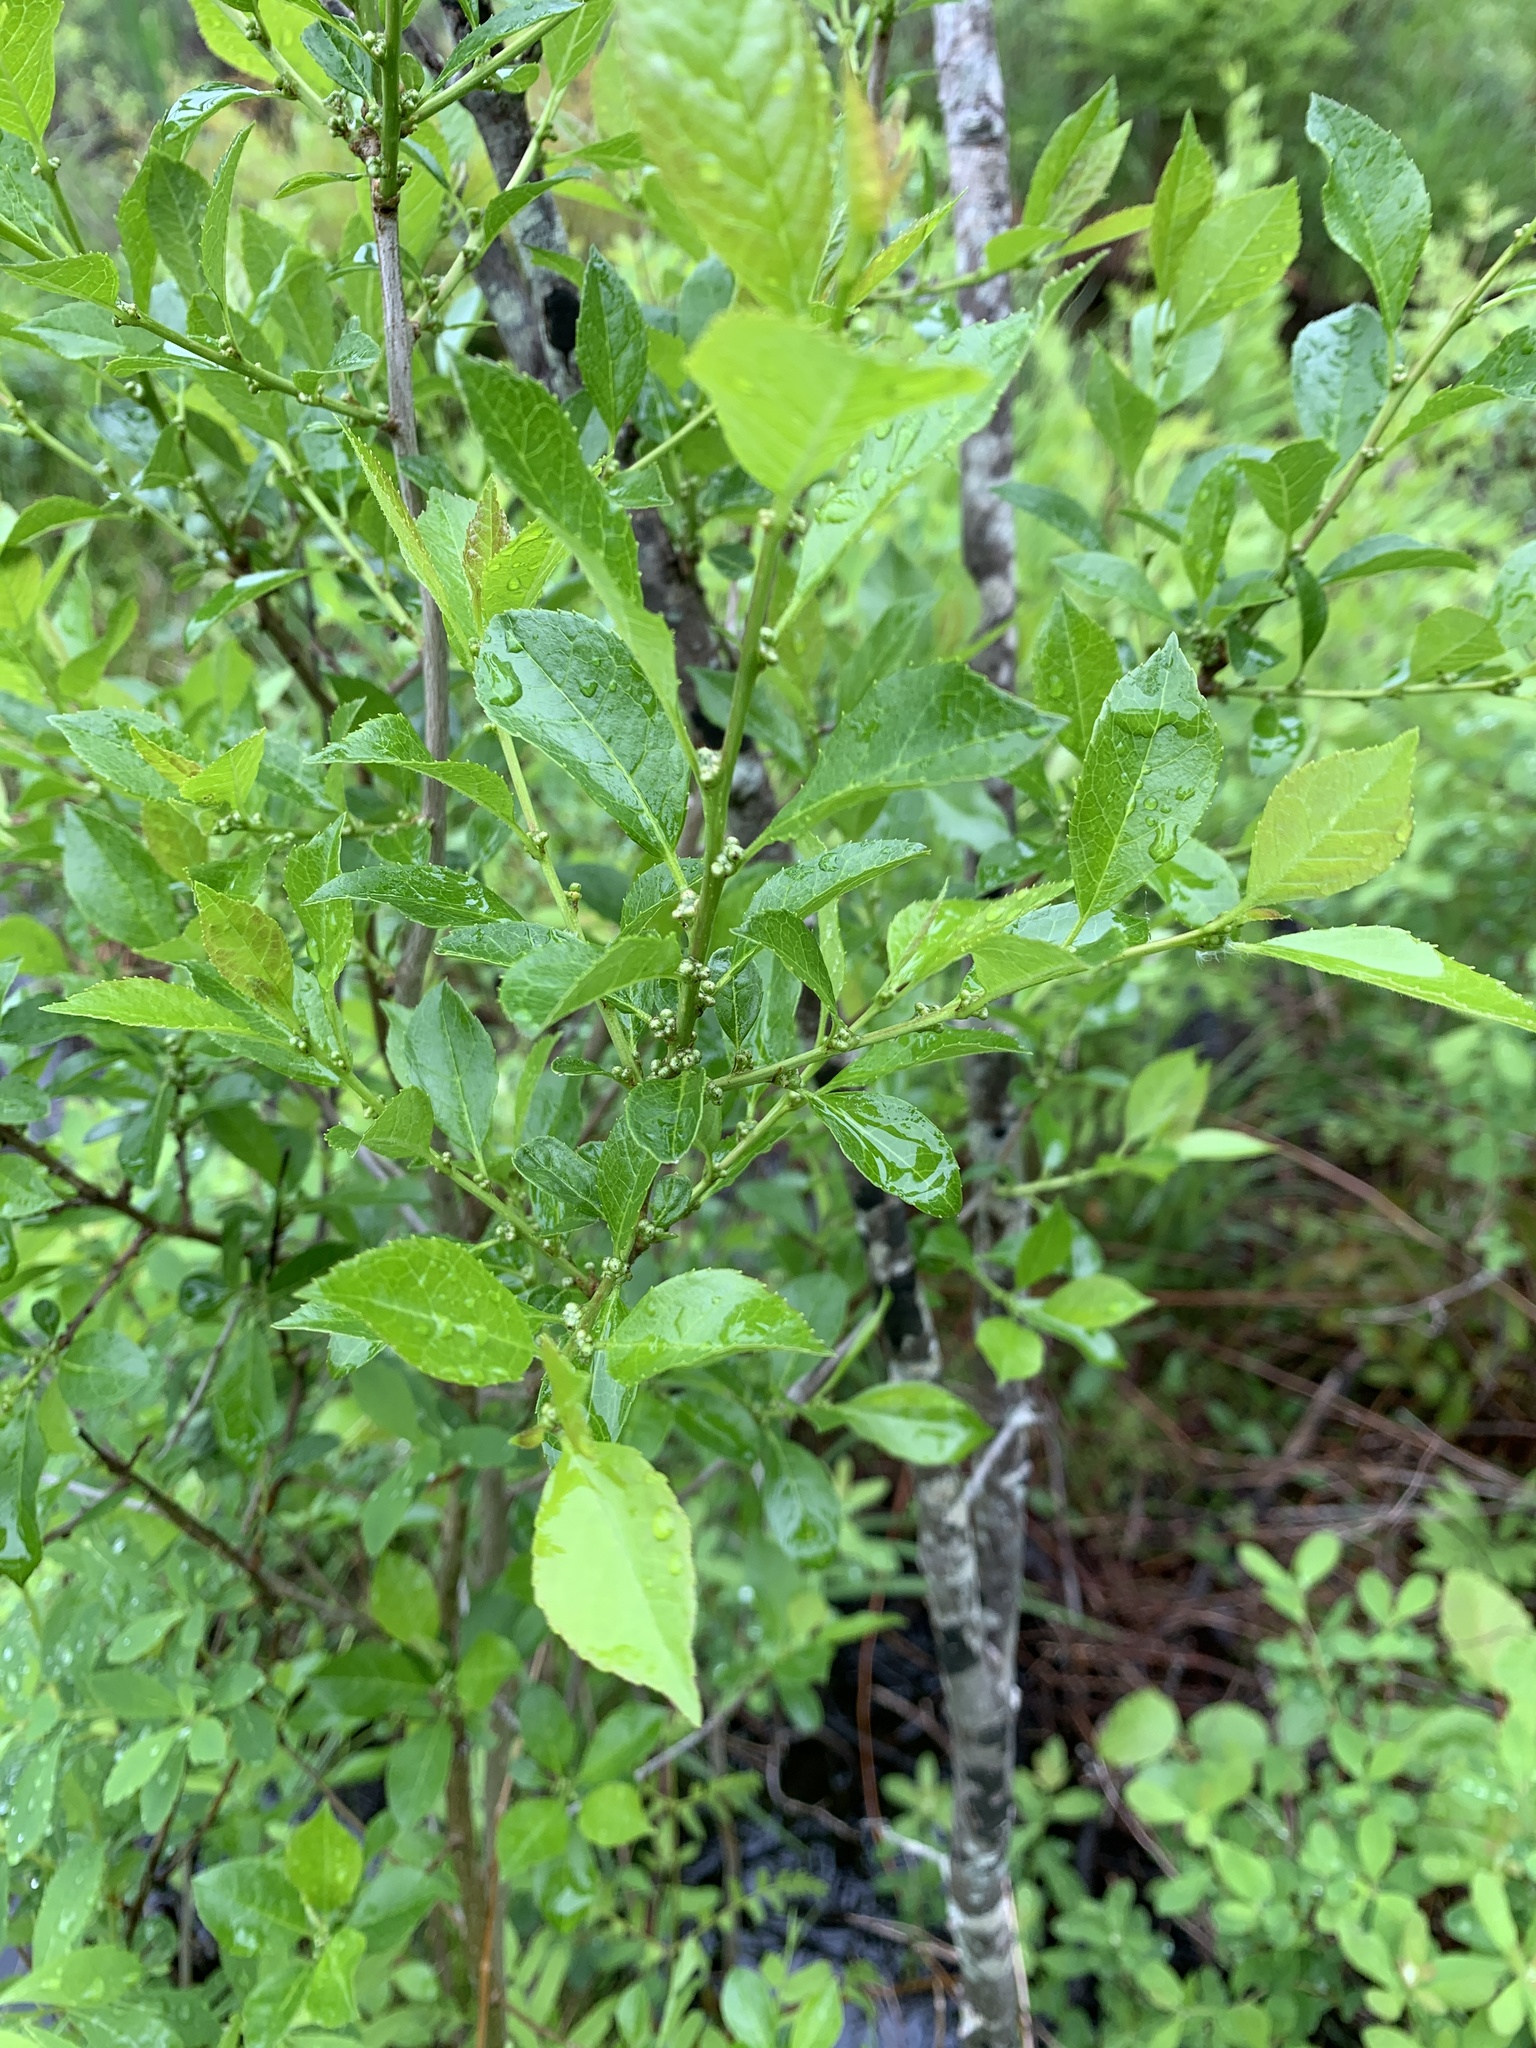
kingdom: Plantae
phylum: Tracheophyta
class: Magnoliopsida
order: Aquifoliales
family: Aquifoliaceae
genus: Ilex
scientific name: Ilex verticillata
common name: Virginia winterberry
